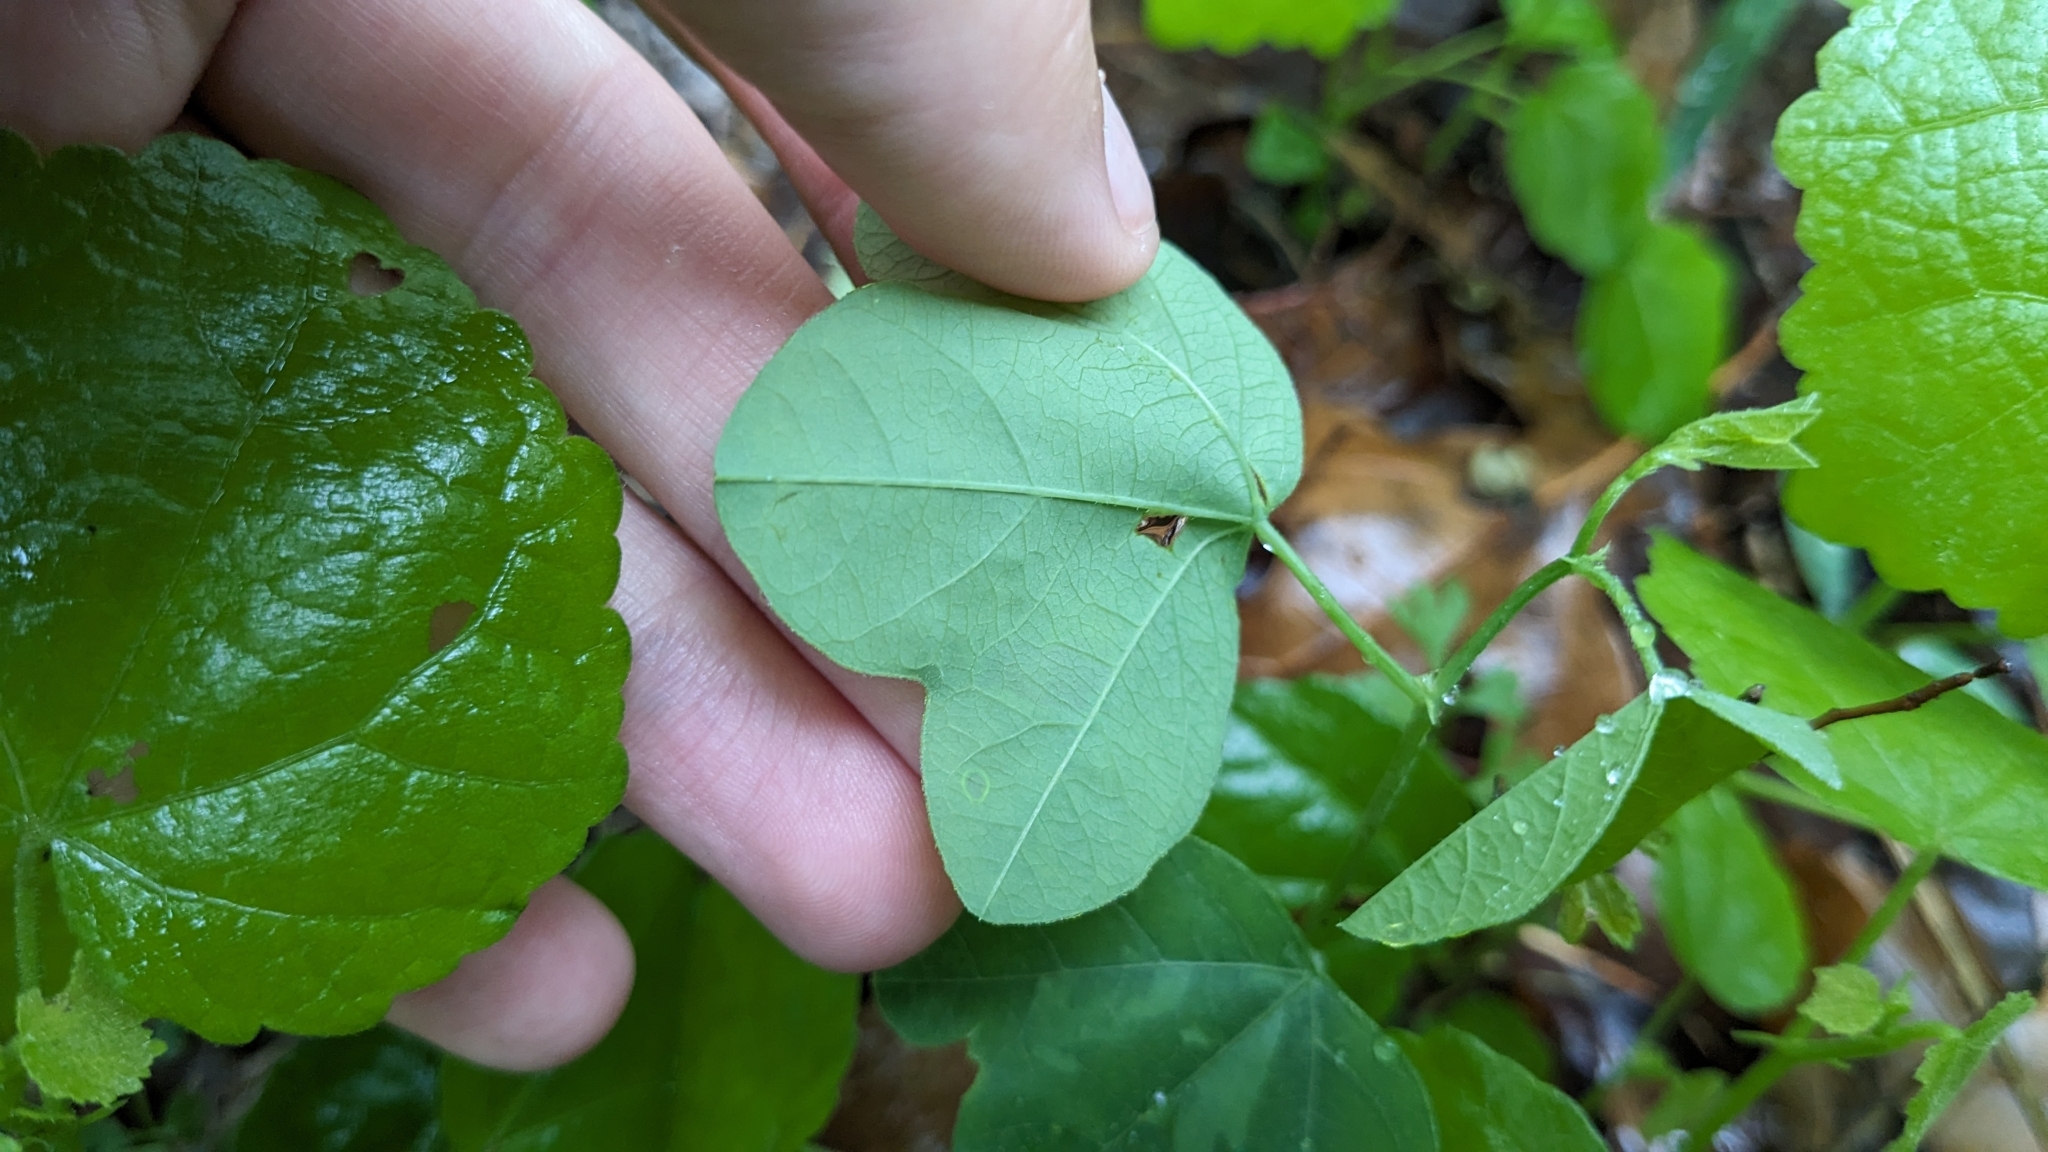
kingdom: Plantae
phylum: Tracheophyta
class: Magnoliopsida
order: Malpighiales
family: Passifloraceae
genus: Passiflora
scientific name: Passiflora lutea
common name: Yellow passionflower
